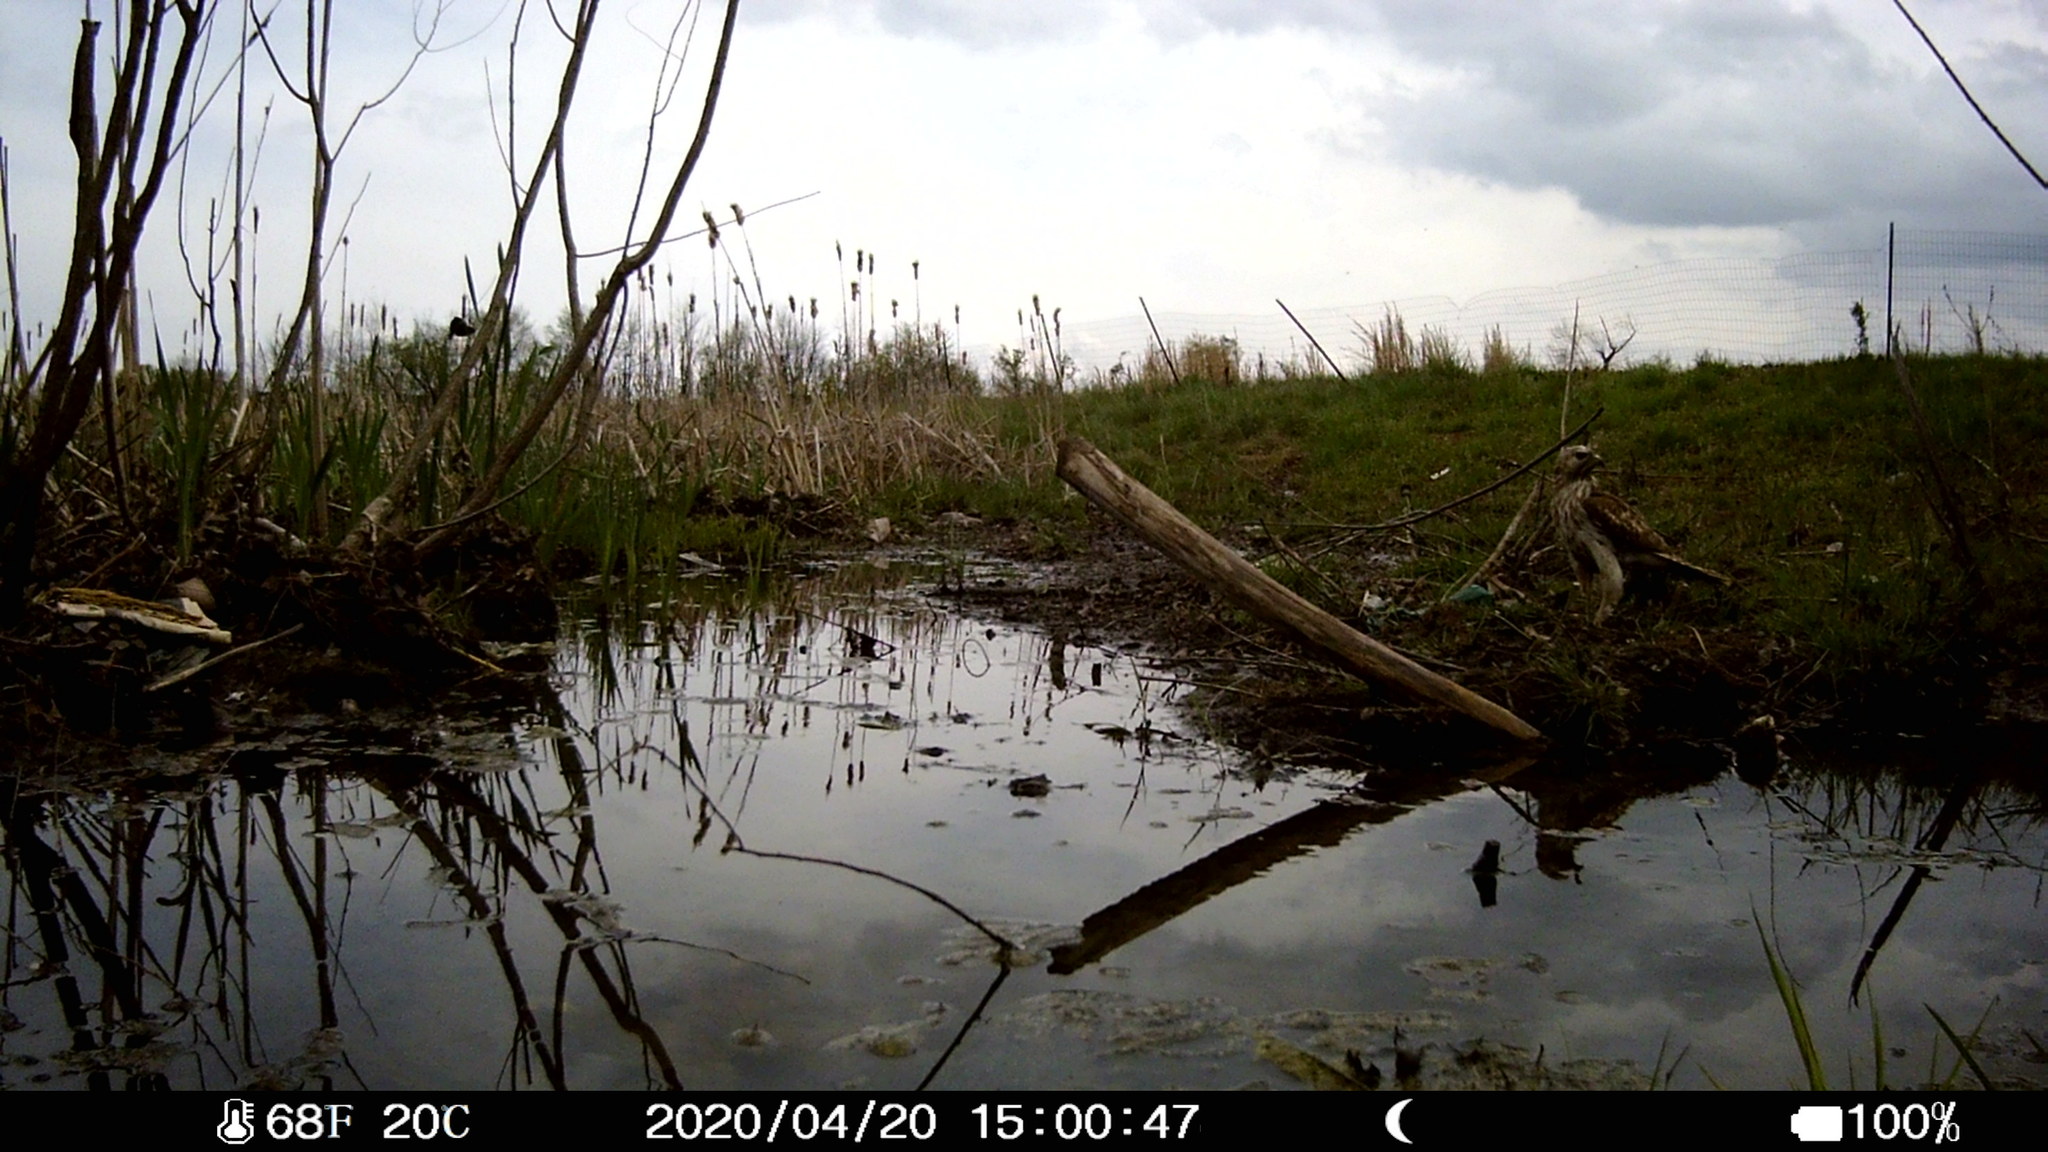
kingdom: Animalia
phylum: Chordata
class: Aves
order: Accipitriformes
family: Accipitridae
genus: Buteo
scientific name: Buteo lineatus
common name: Red-shouldered hawk
